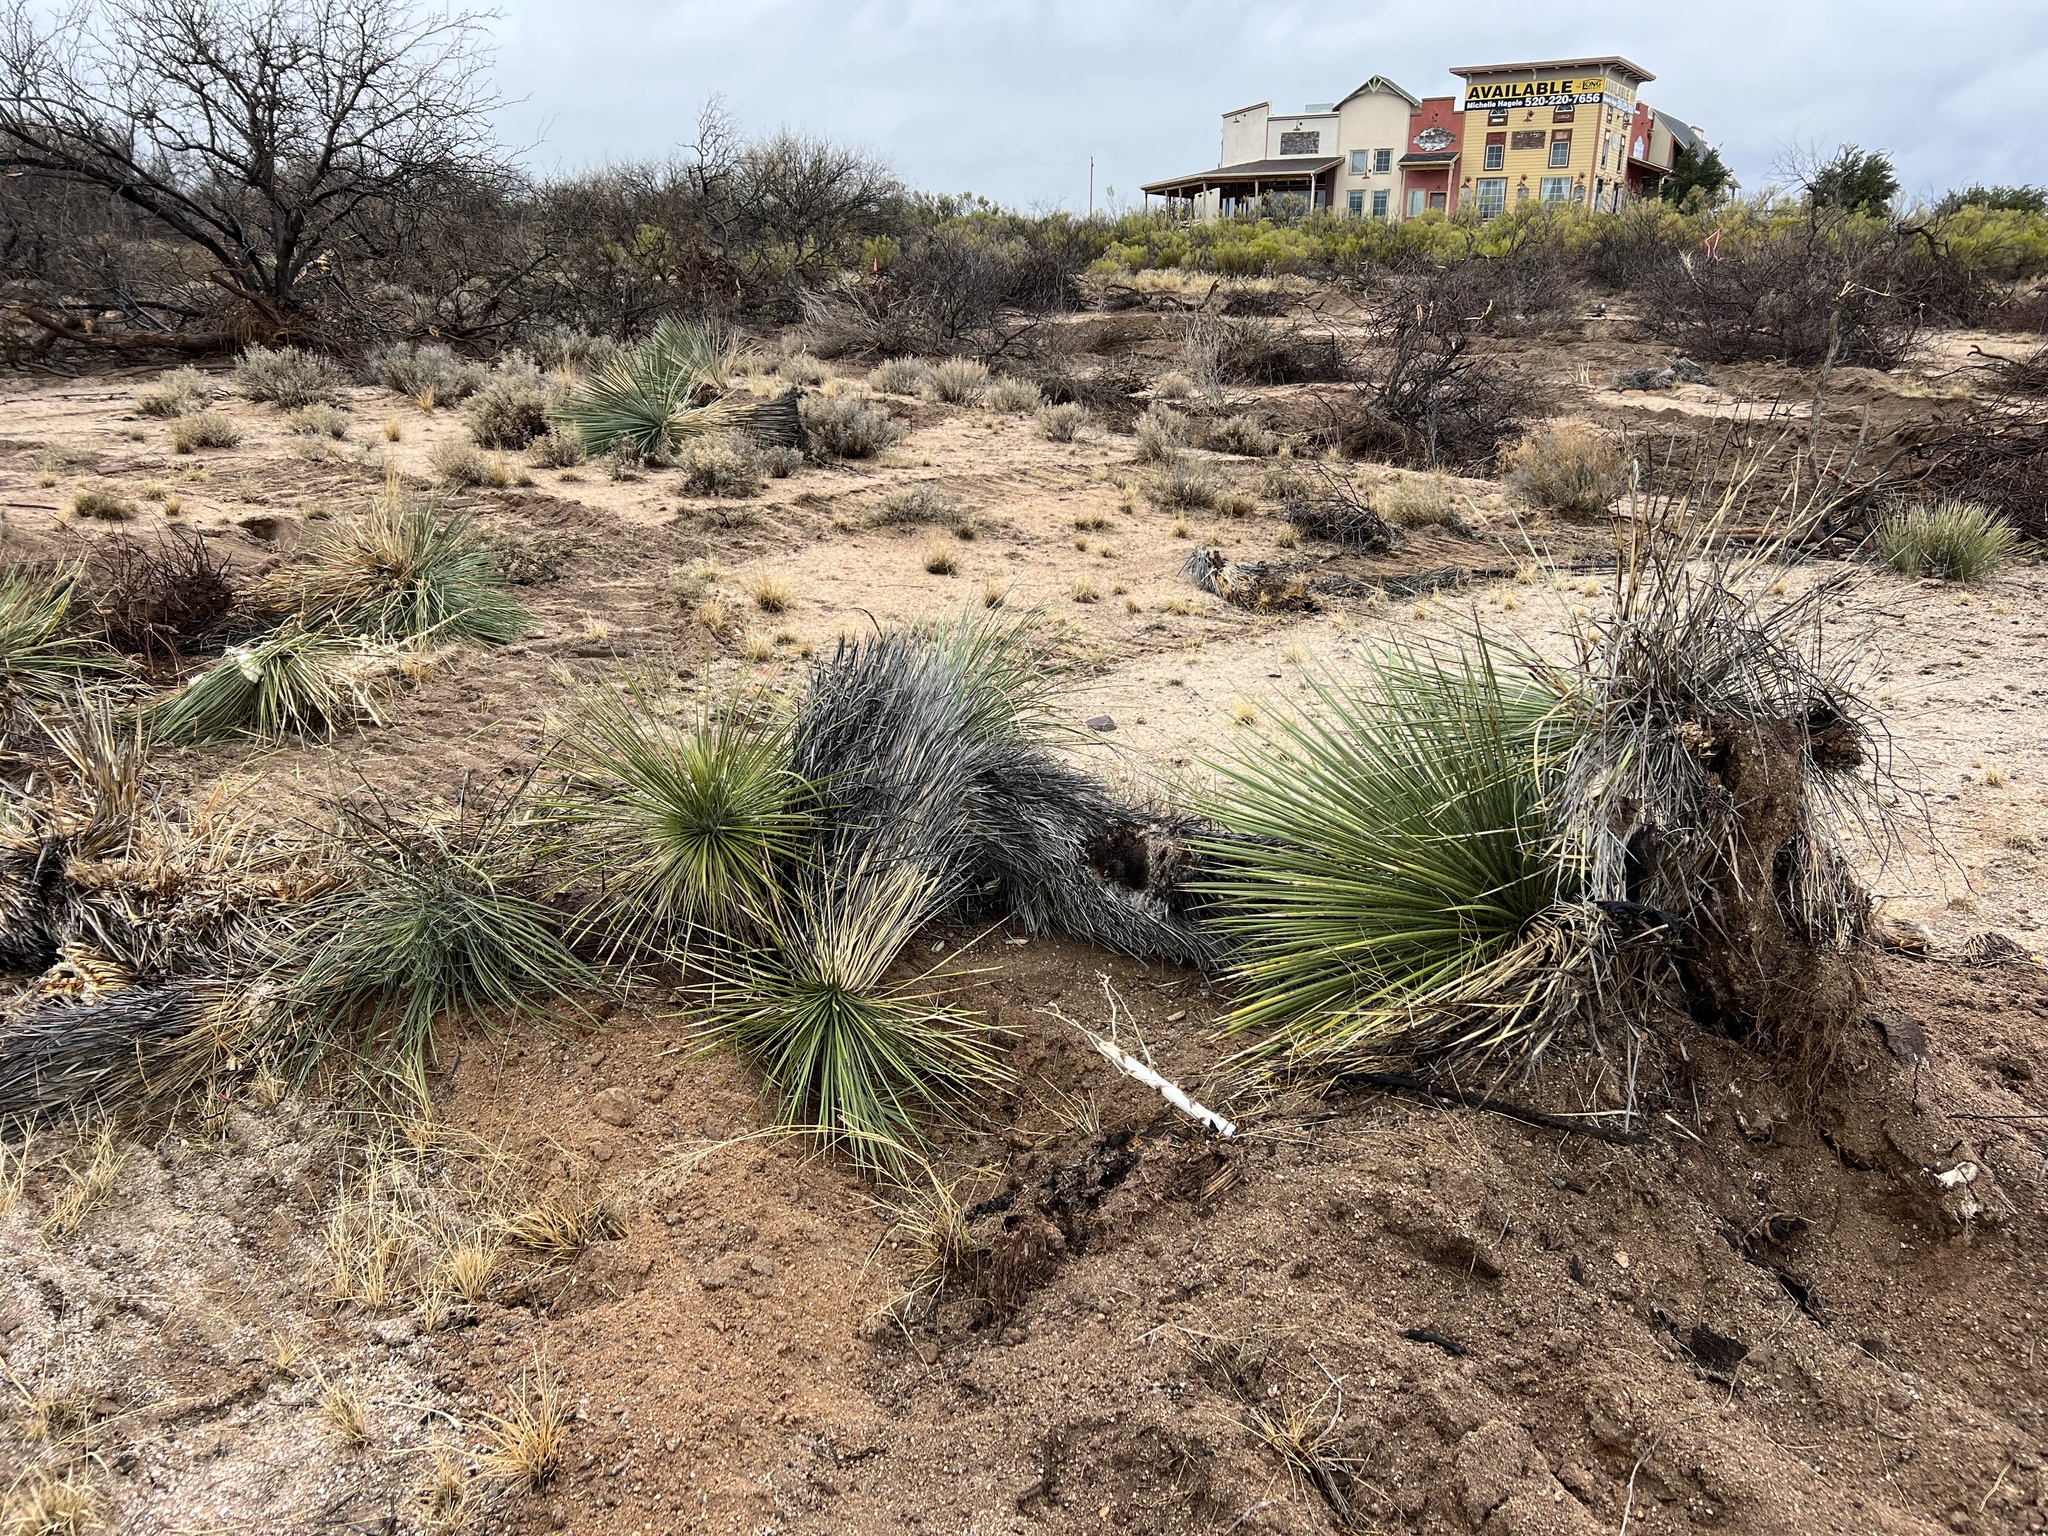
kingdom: Plantae
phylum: Tracheophyta
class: Liliopsida
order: Asparagales
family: Asparagaceae
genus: Yucca
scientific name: Yucca elata
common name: Palmella
